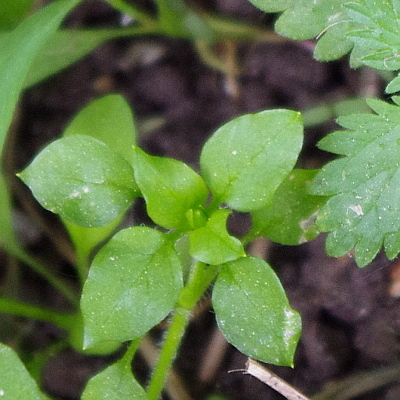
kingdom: Plantae
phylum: Tracheophyta
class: Magnoliopsida
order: Caryophyllales
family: Caryophyllaceae
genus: Stellaria
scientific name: Stellaria media
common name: Common chickweed
